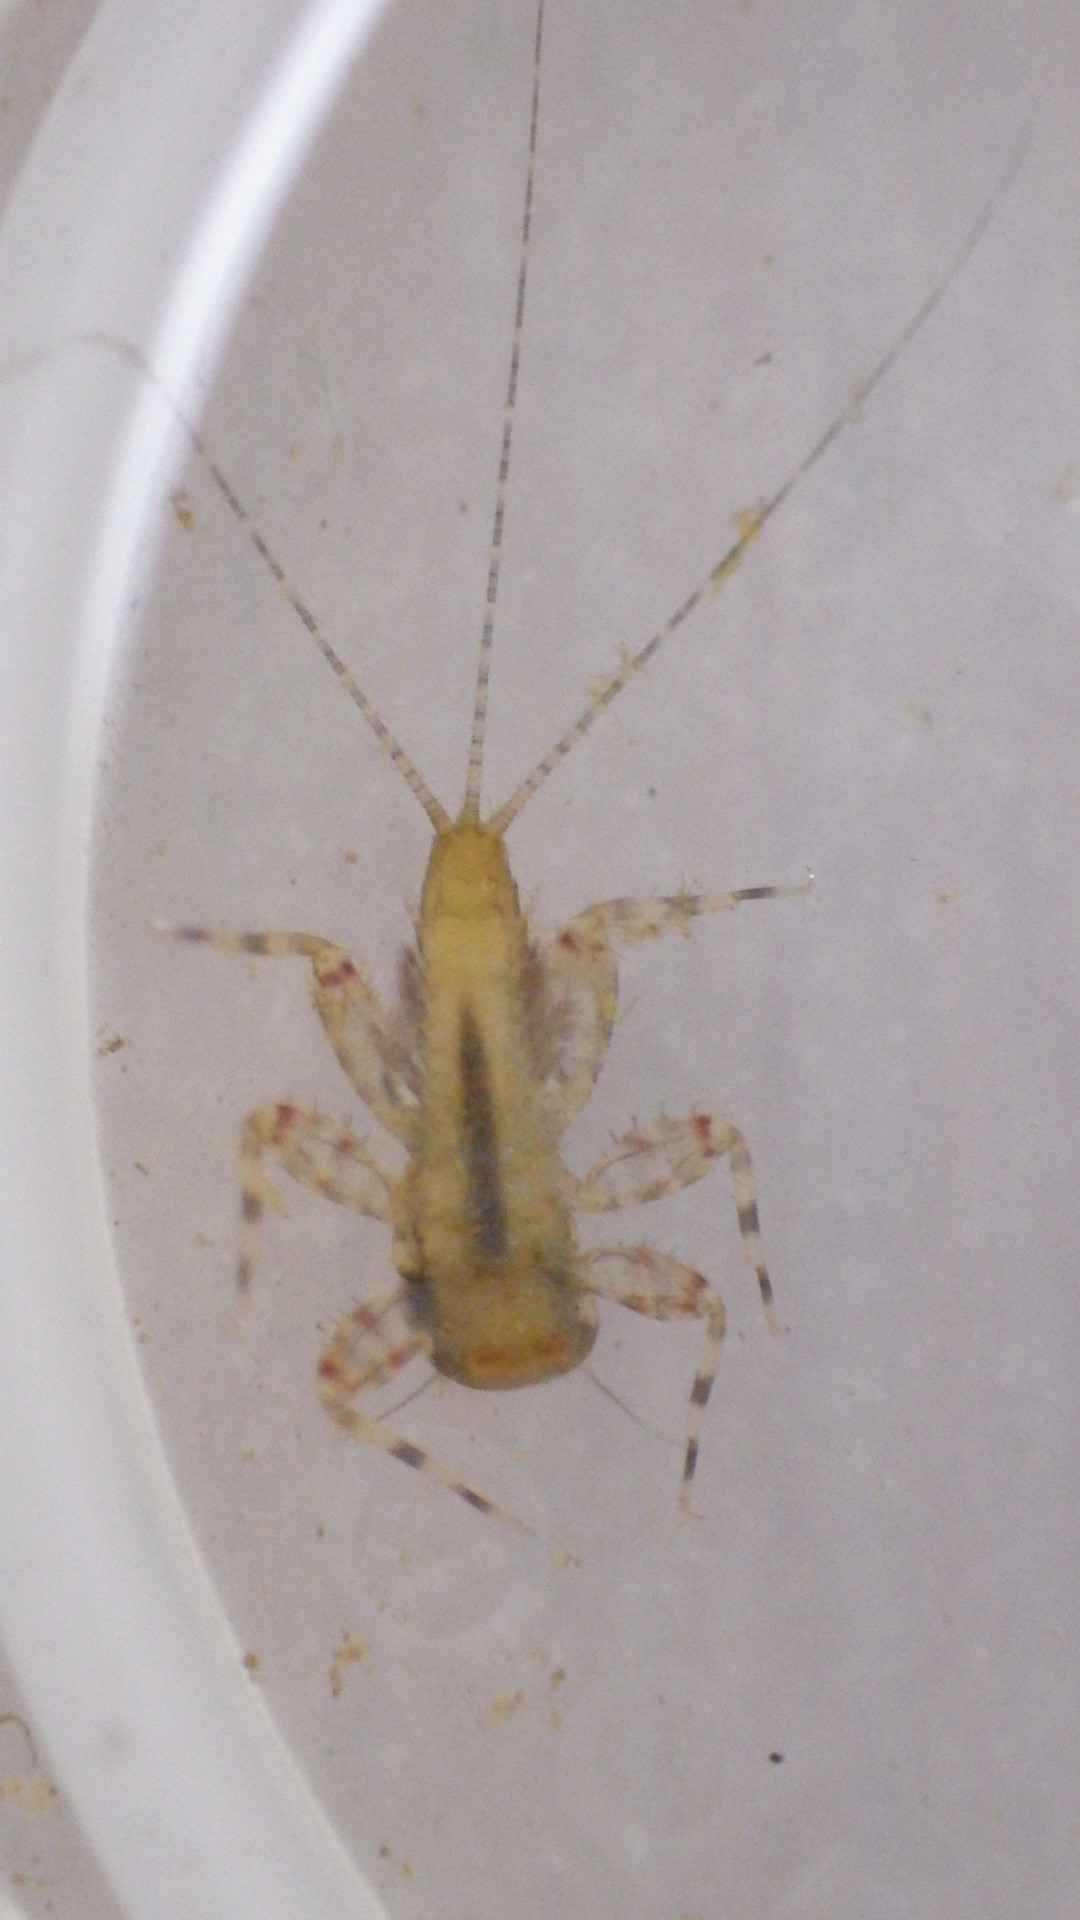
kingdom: Animalia
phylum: Arthropoda
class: Insecta
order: Ephemeroptera
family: Heptageniidae
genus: Maccaffertium
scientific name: Maccaffertium modestum
